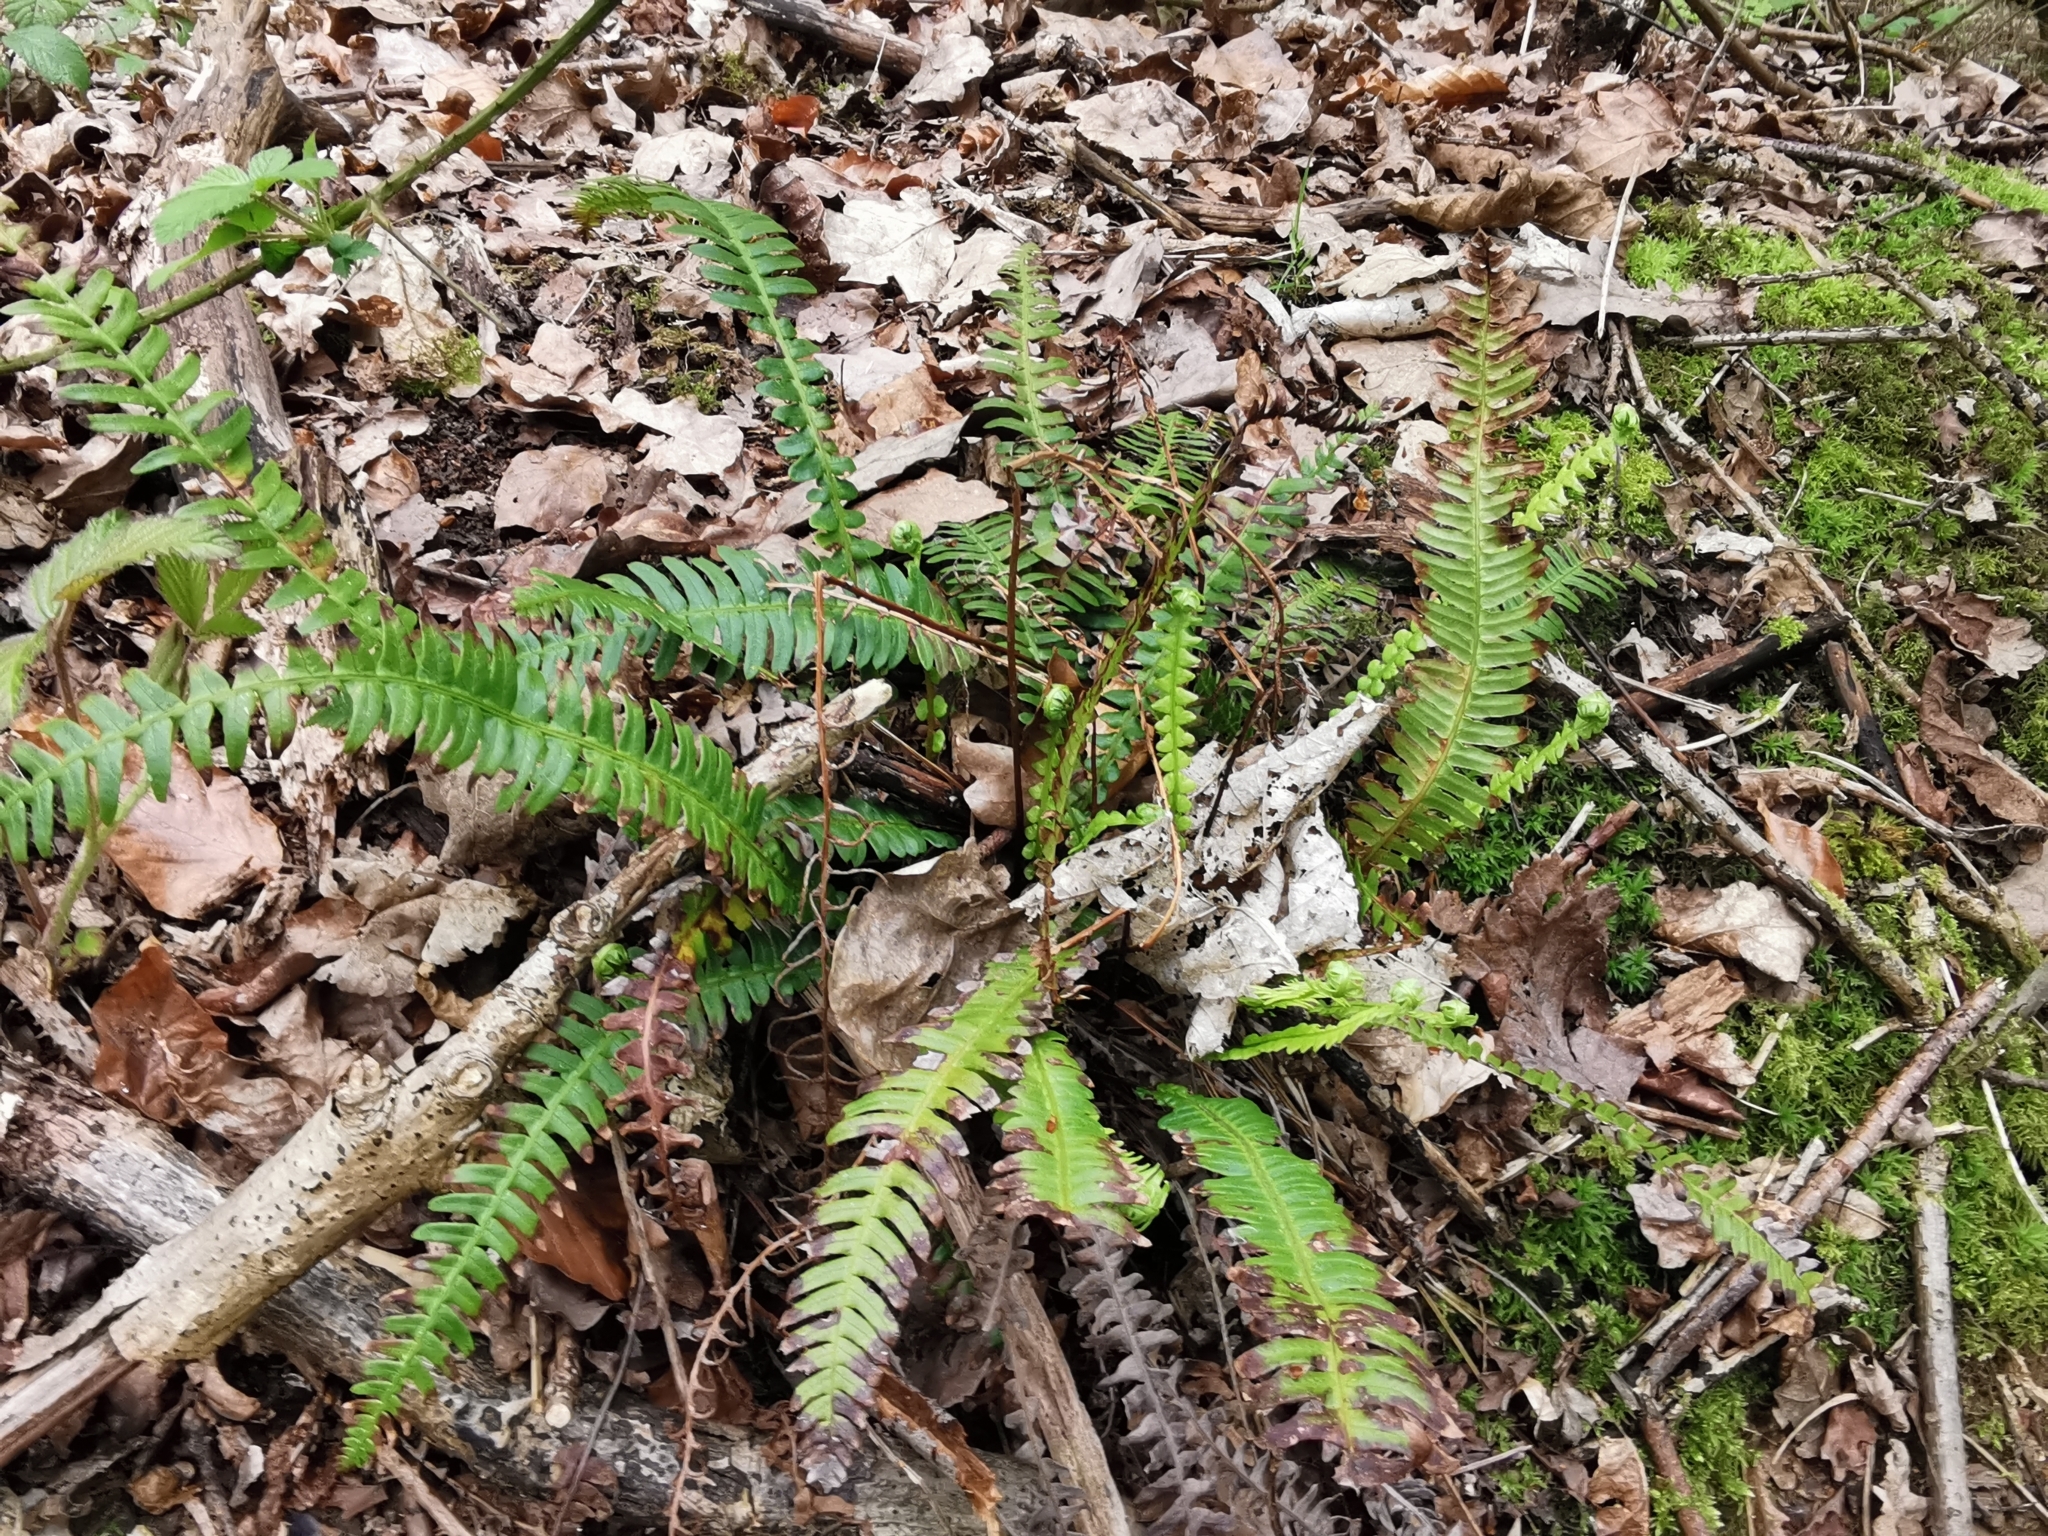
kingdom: Plantae
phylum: Tracheophyta
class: Polypodiopsida
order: Polypodiales
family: Blechnaceae
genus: Struthiopteris
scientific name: Struthiopteris spicant
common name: Deer fern
